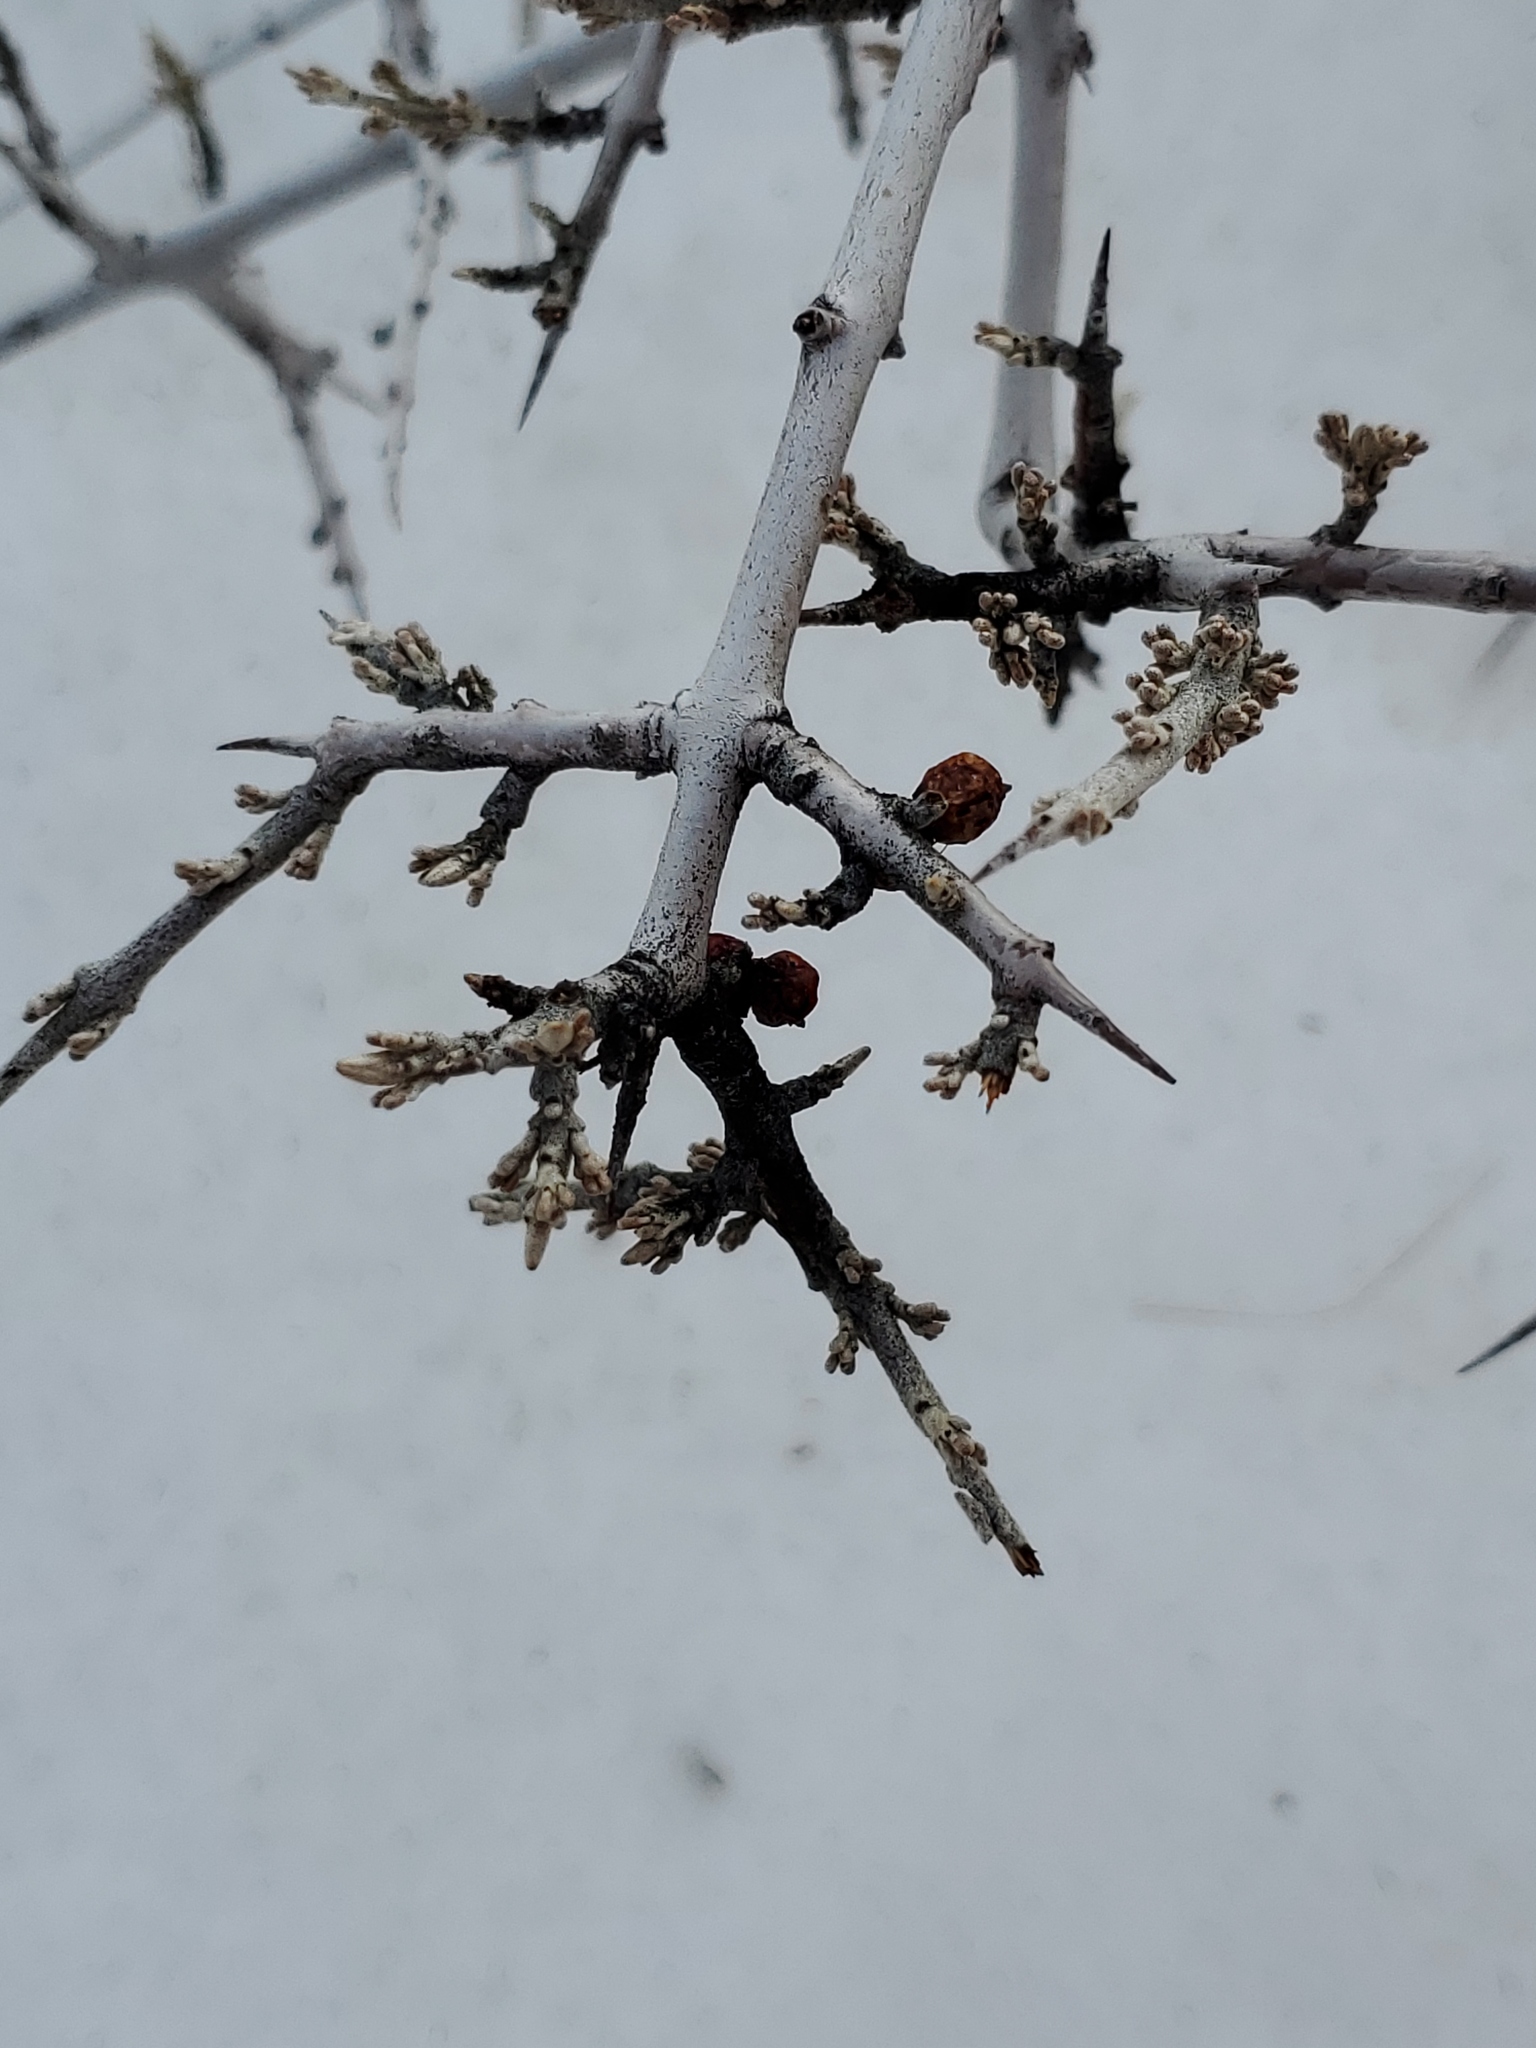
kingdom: Plantae
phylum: Tracheophyta
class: Magnoliopsida
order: Rosales
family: Elaeagnaceae
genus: Shepherdia
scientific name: Shepherdia argentea
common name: Silver buffaloberry
